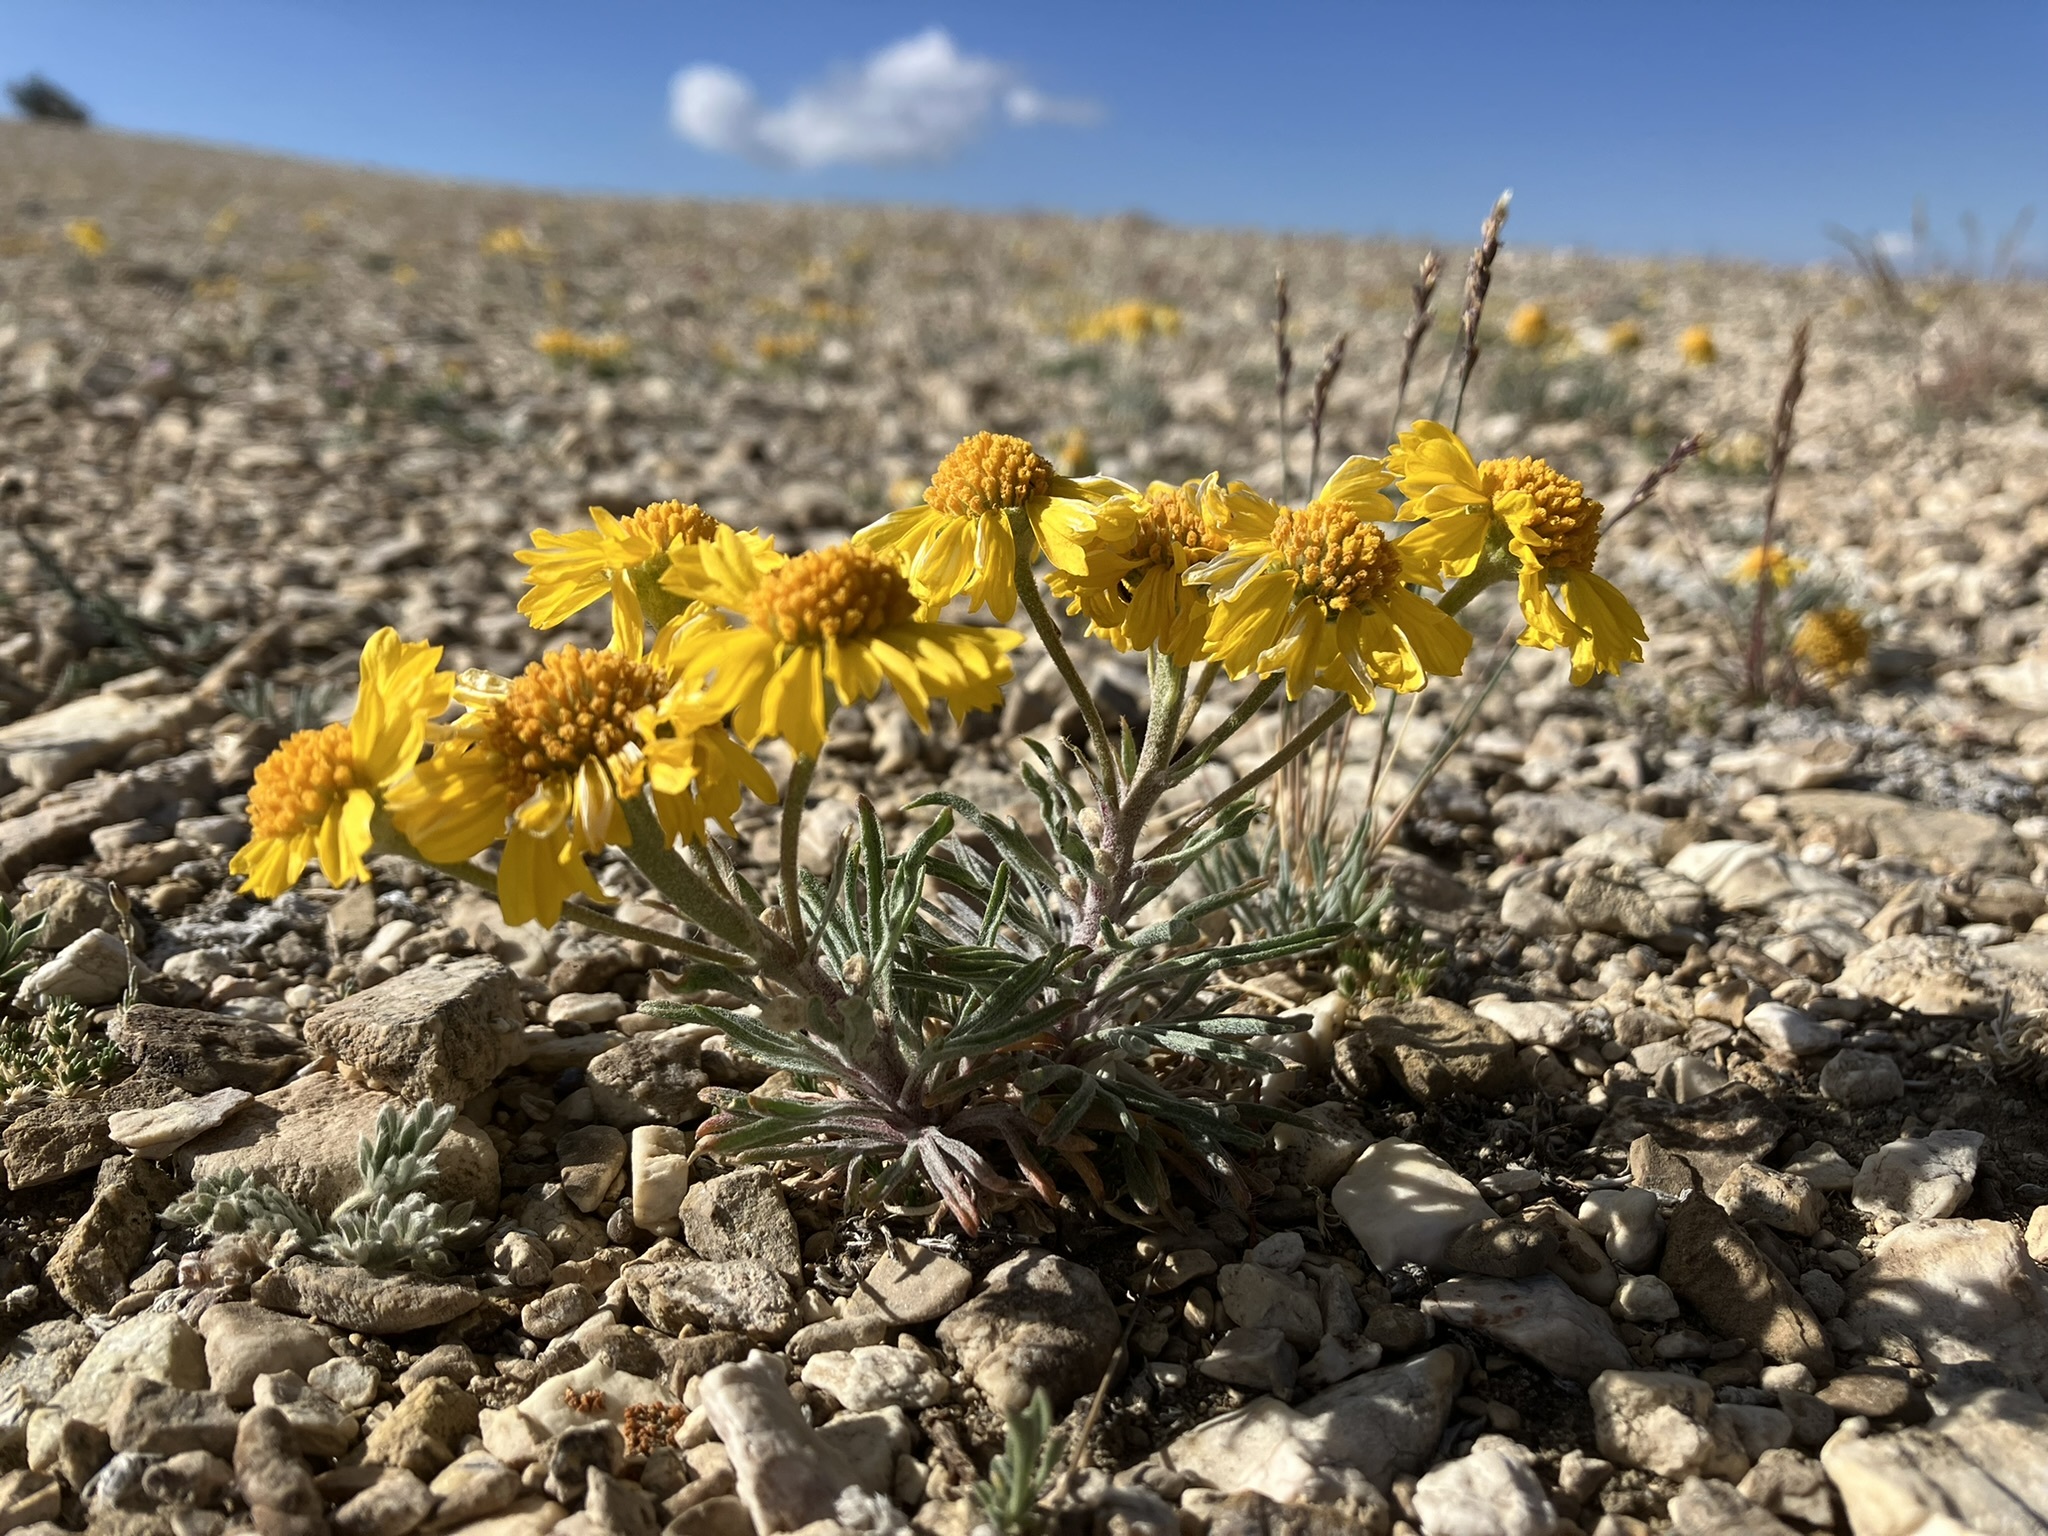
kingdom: Plantae
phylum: Tracheophyta
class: Magnoliopsida
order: Asterales
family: Asteraceae
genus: Hymenoxys
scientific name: Hymenoxys cooperi
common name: Cooper's bitterweed
